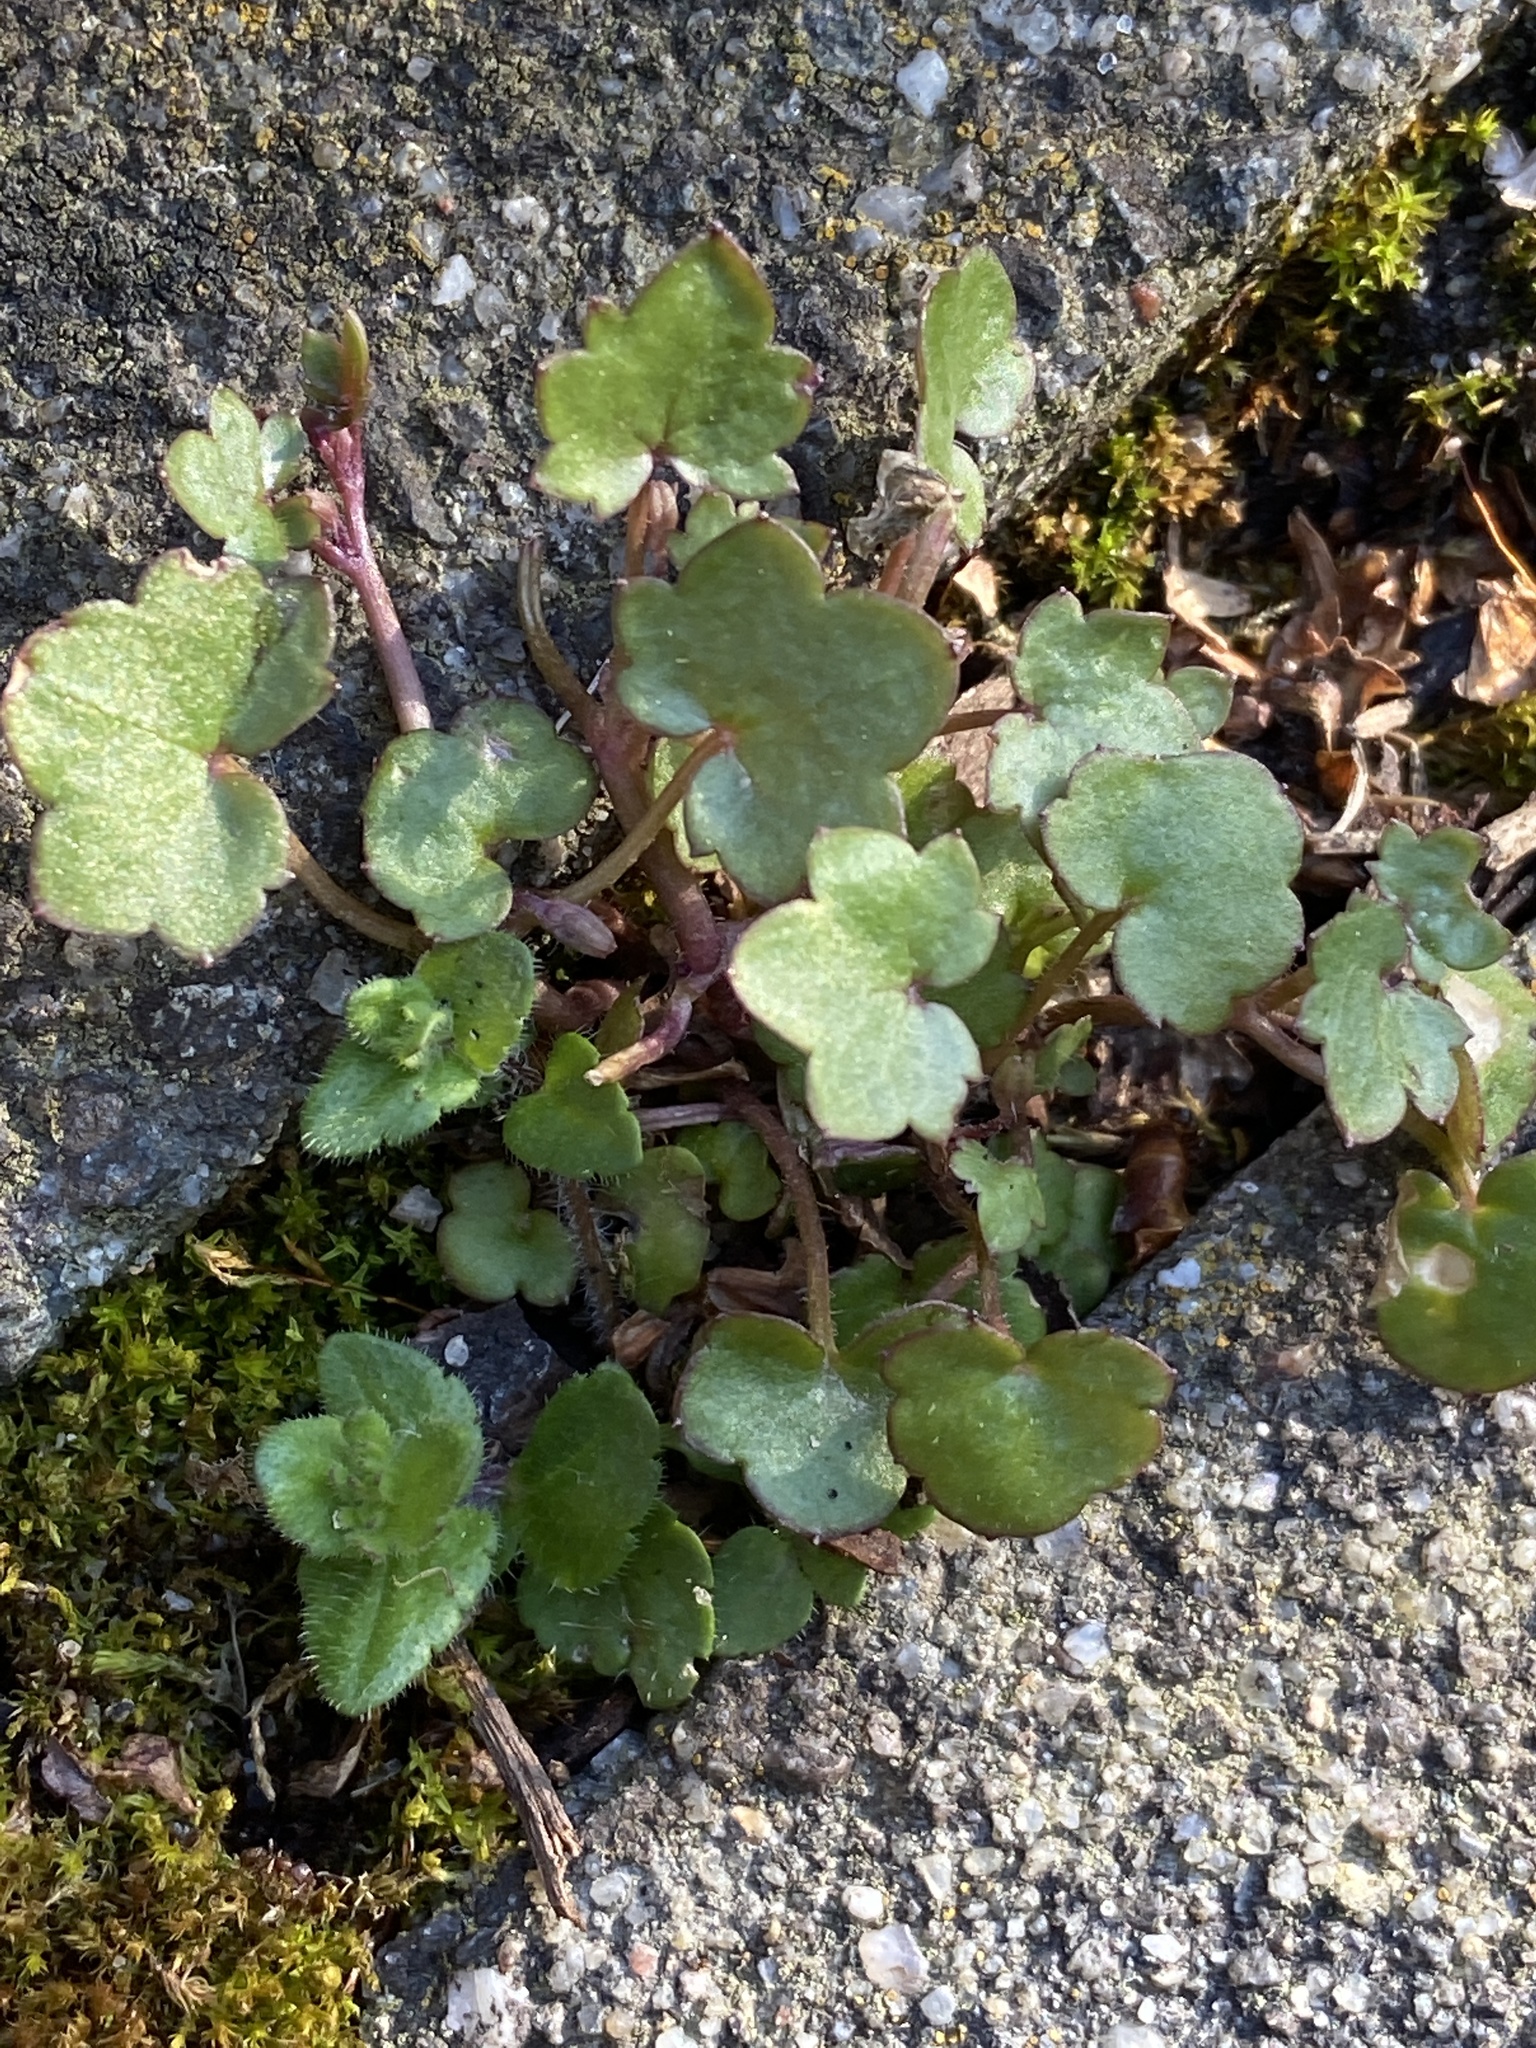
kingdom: Plantae
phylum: Tracheophyta
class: Magnoliopsida
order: Lamiales
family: Plantaginaceae
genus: Cymbalaria
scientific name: Cymbalaria muralis
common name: Ivy-leaved toadflax
